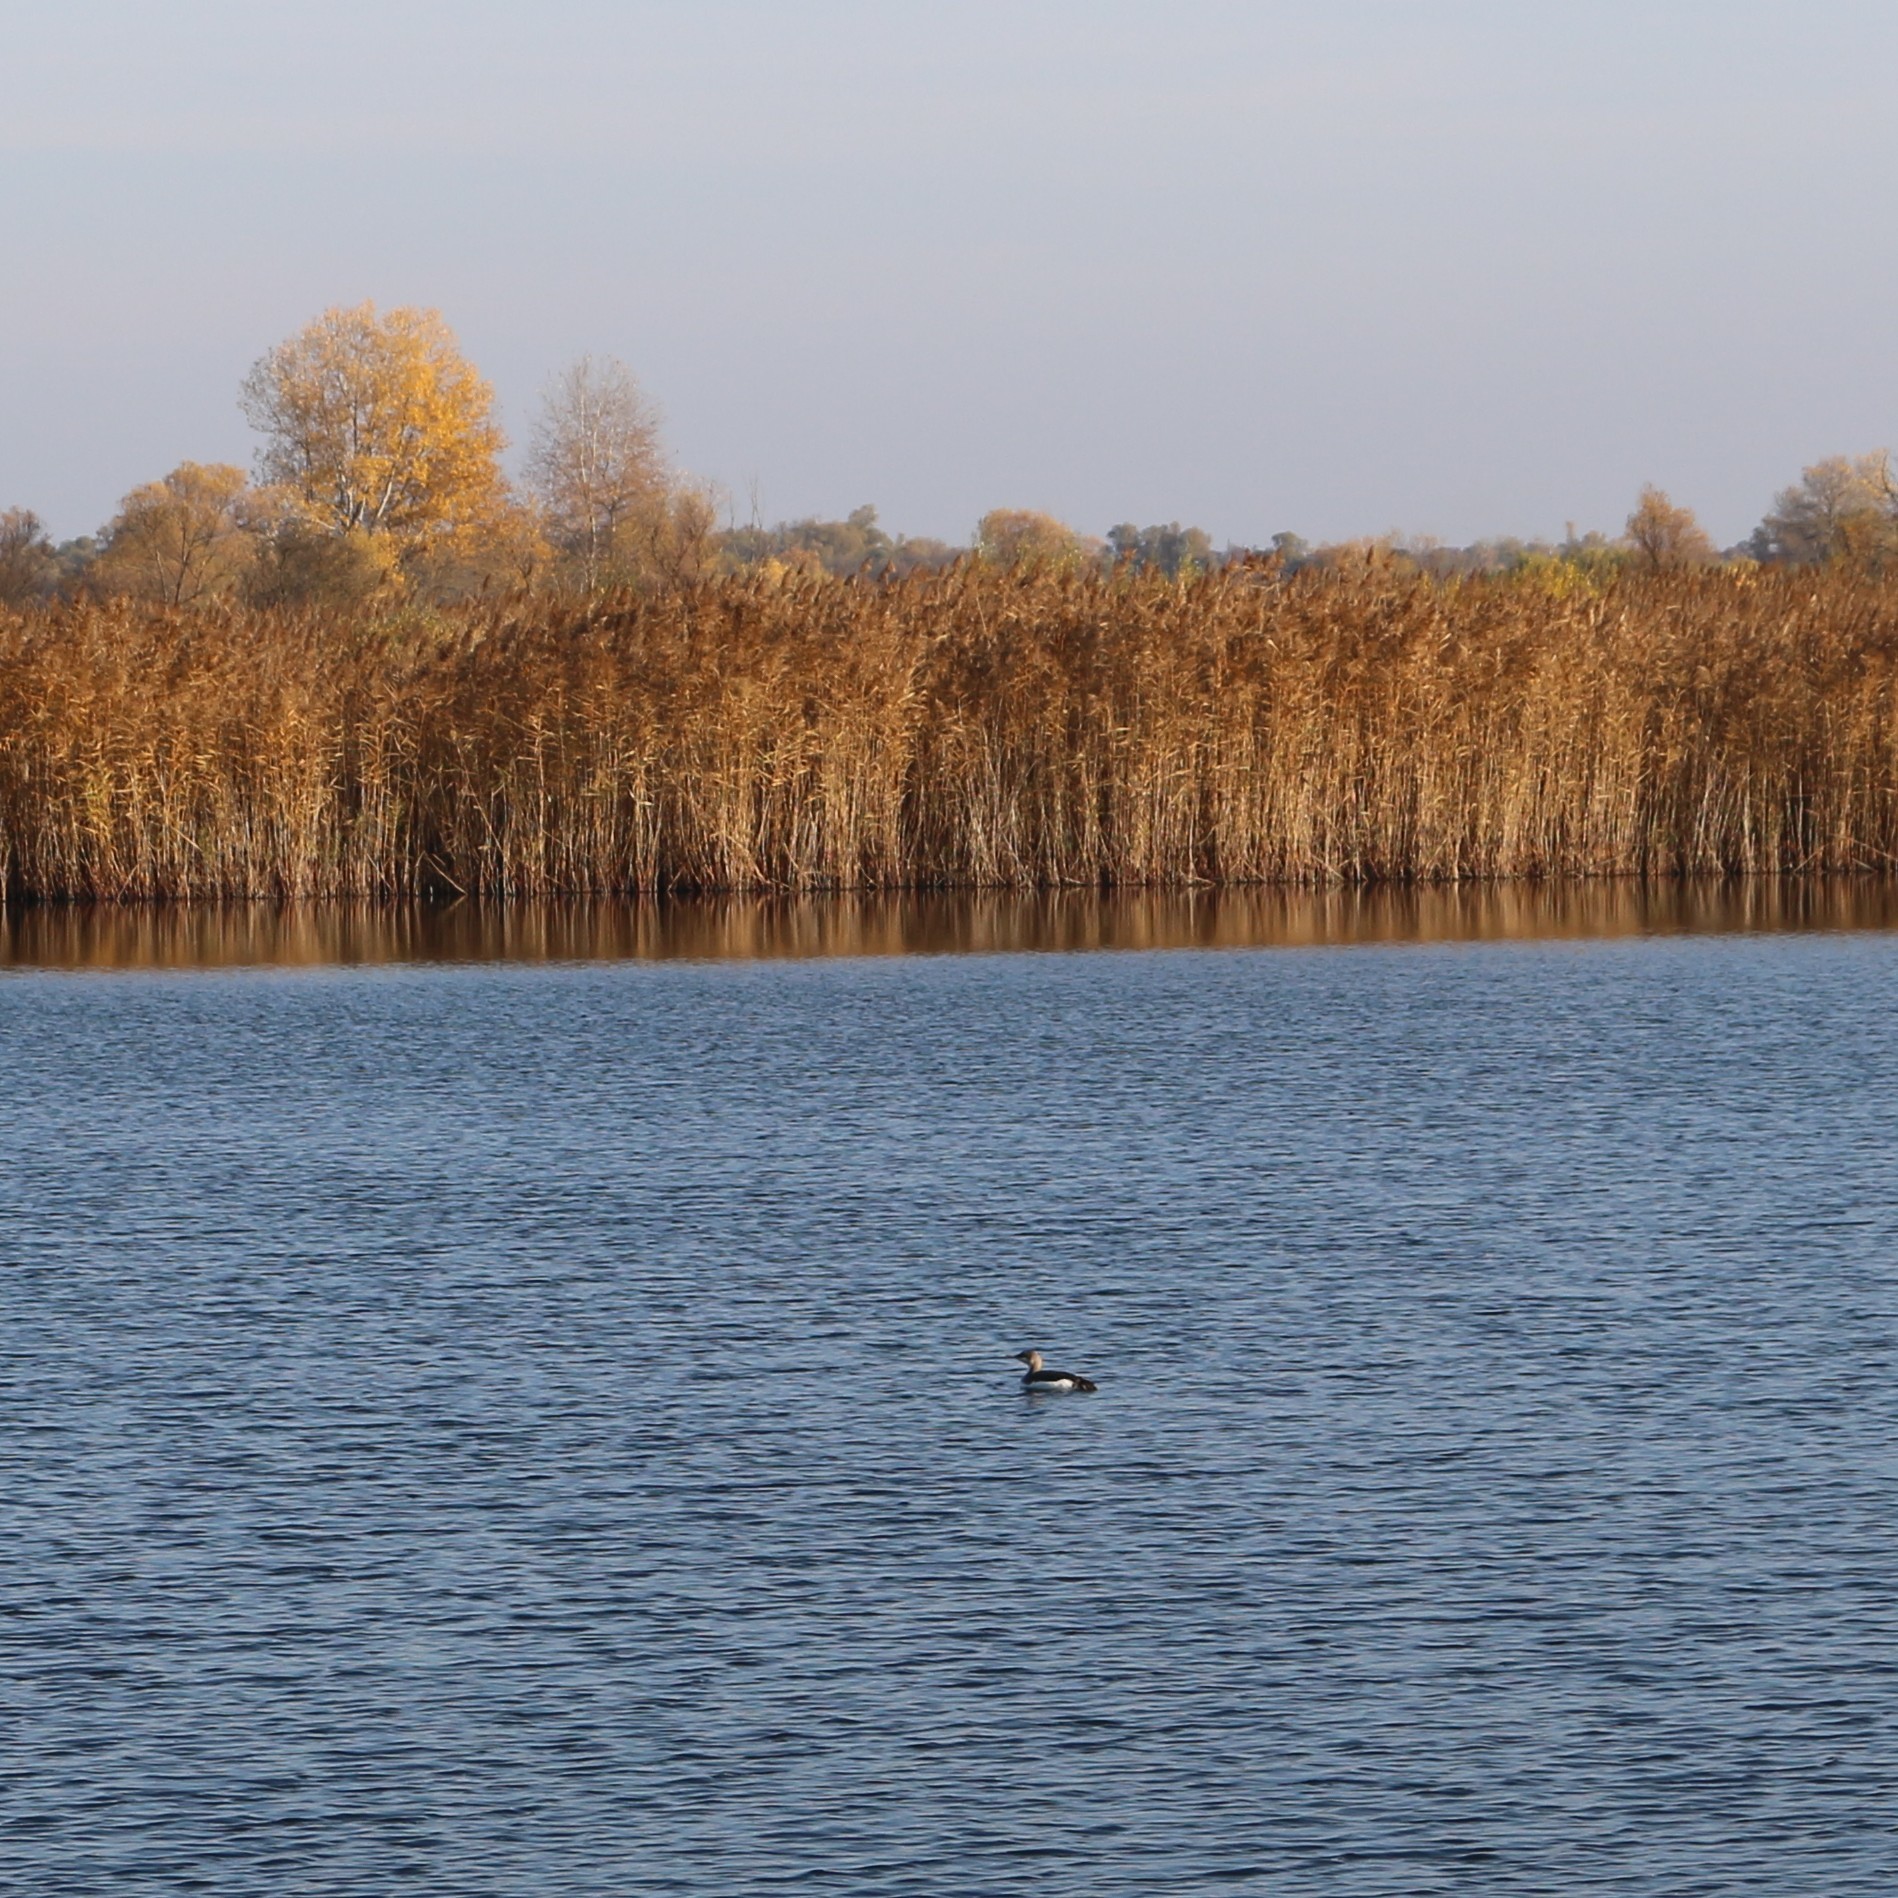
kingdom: Animalia
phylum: Chordata
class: Aves
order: Gaviiformes
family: Gaviidae
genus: Gavia
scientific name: Gavia arctica
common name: Black-throated loon
